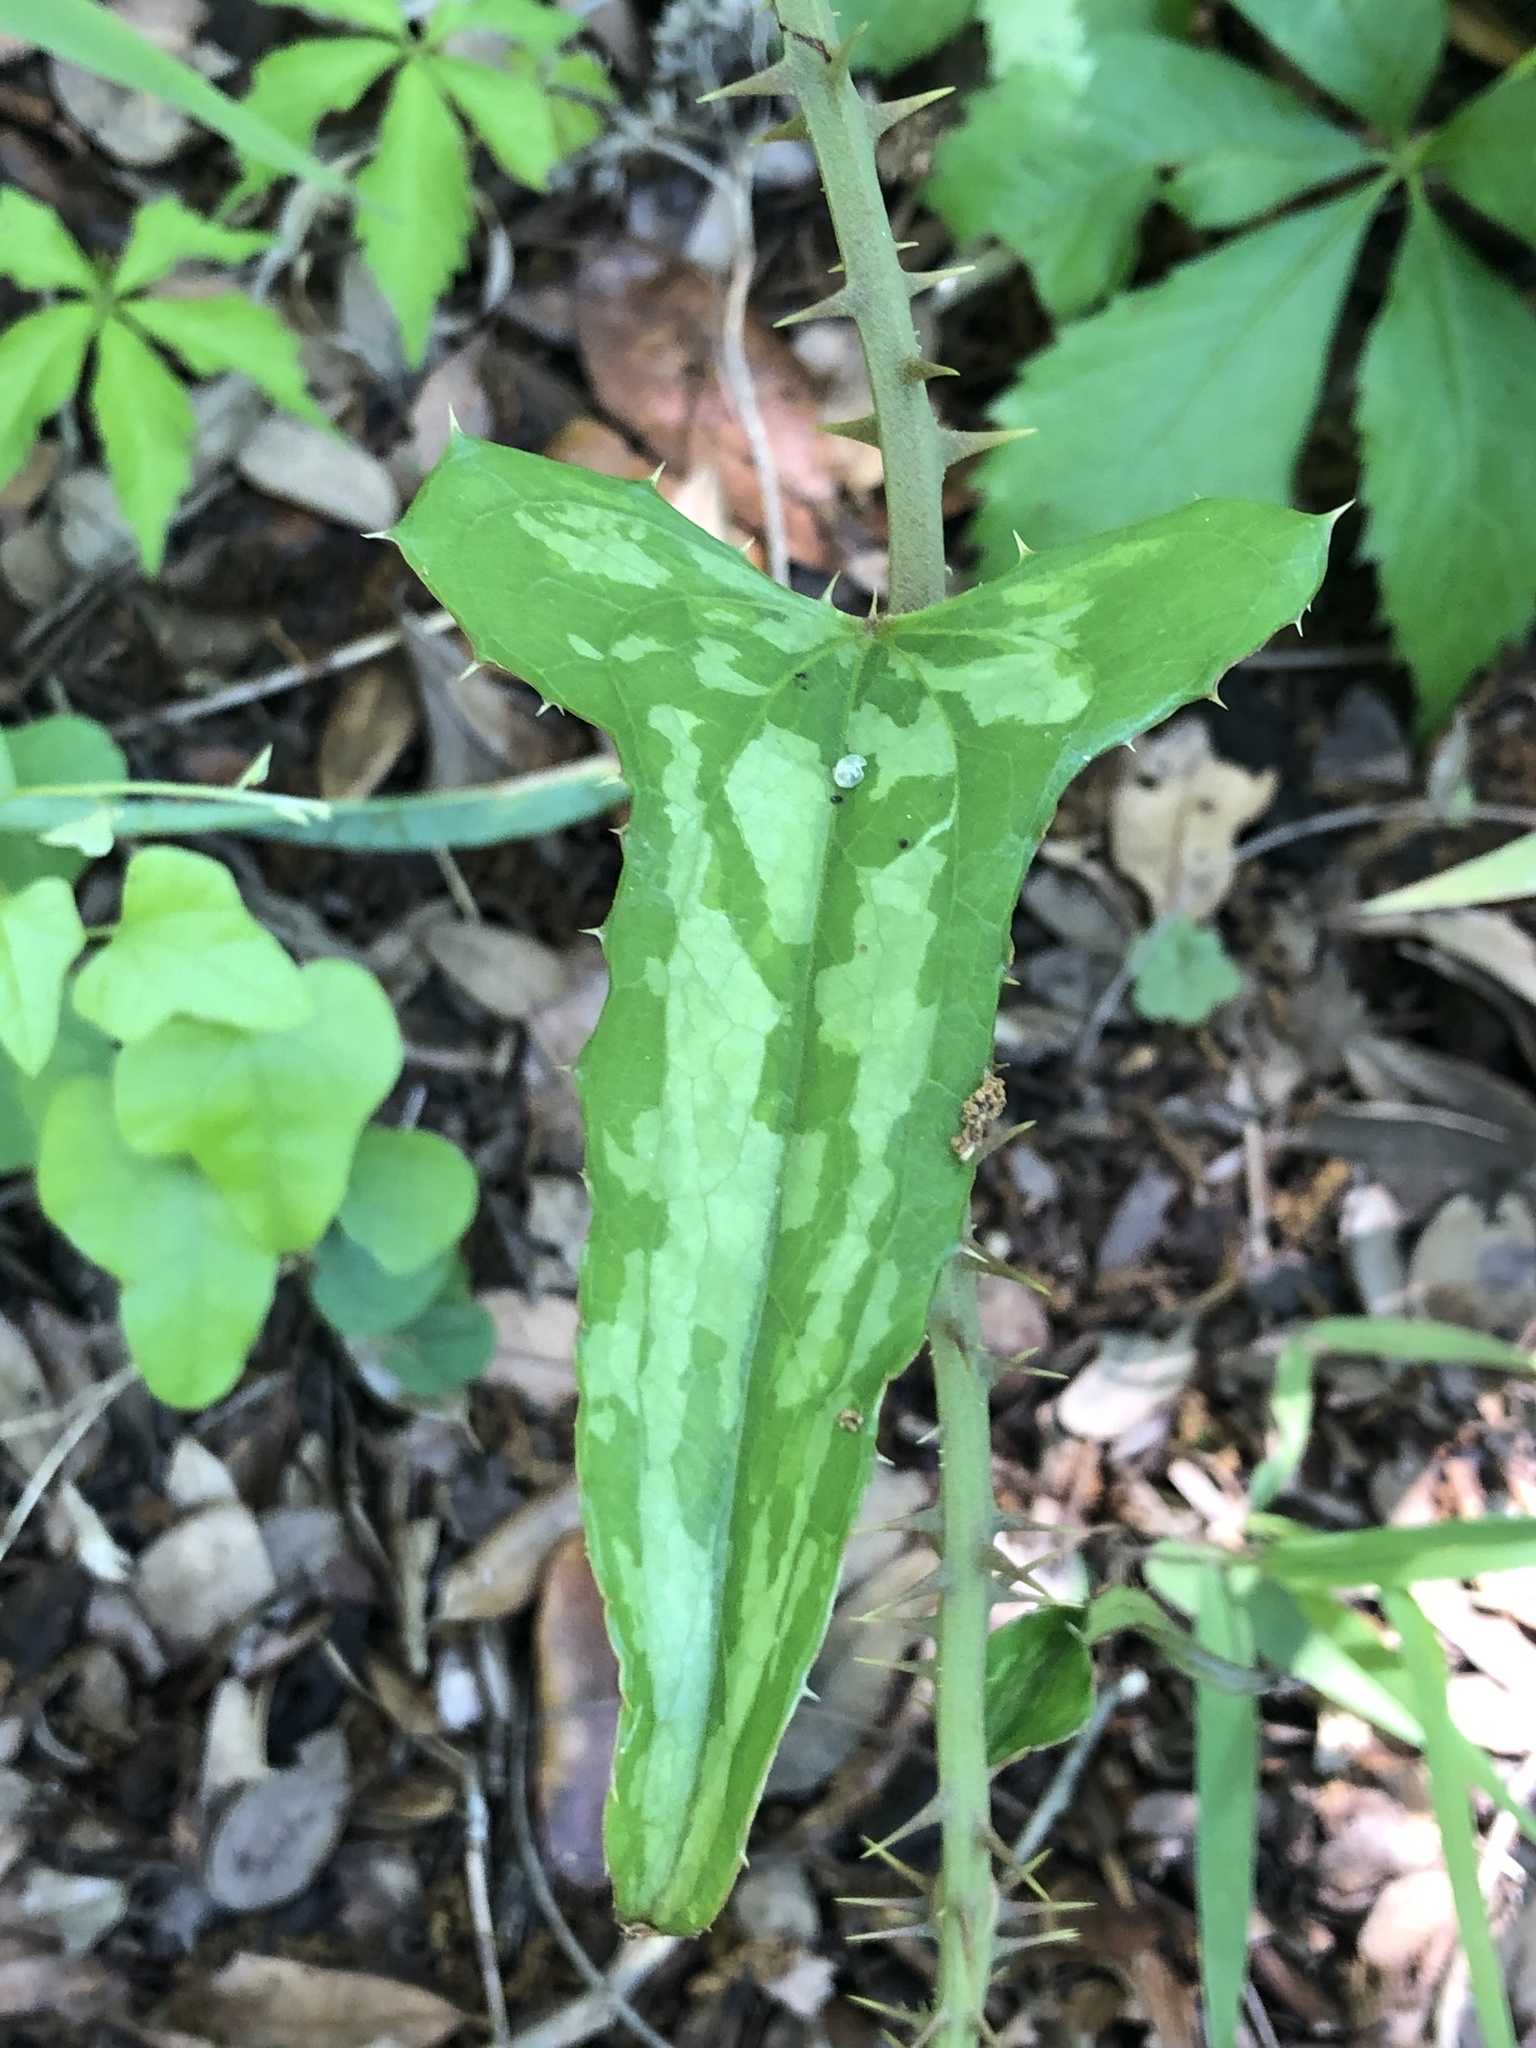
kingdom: Plantae
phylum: Tracheophyta
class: Liliopsida
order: Liliales
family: Smilacaceae
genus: Smilax
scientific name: Smilax bona-nox
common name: Catbrier
